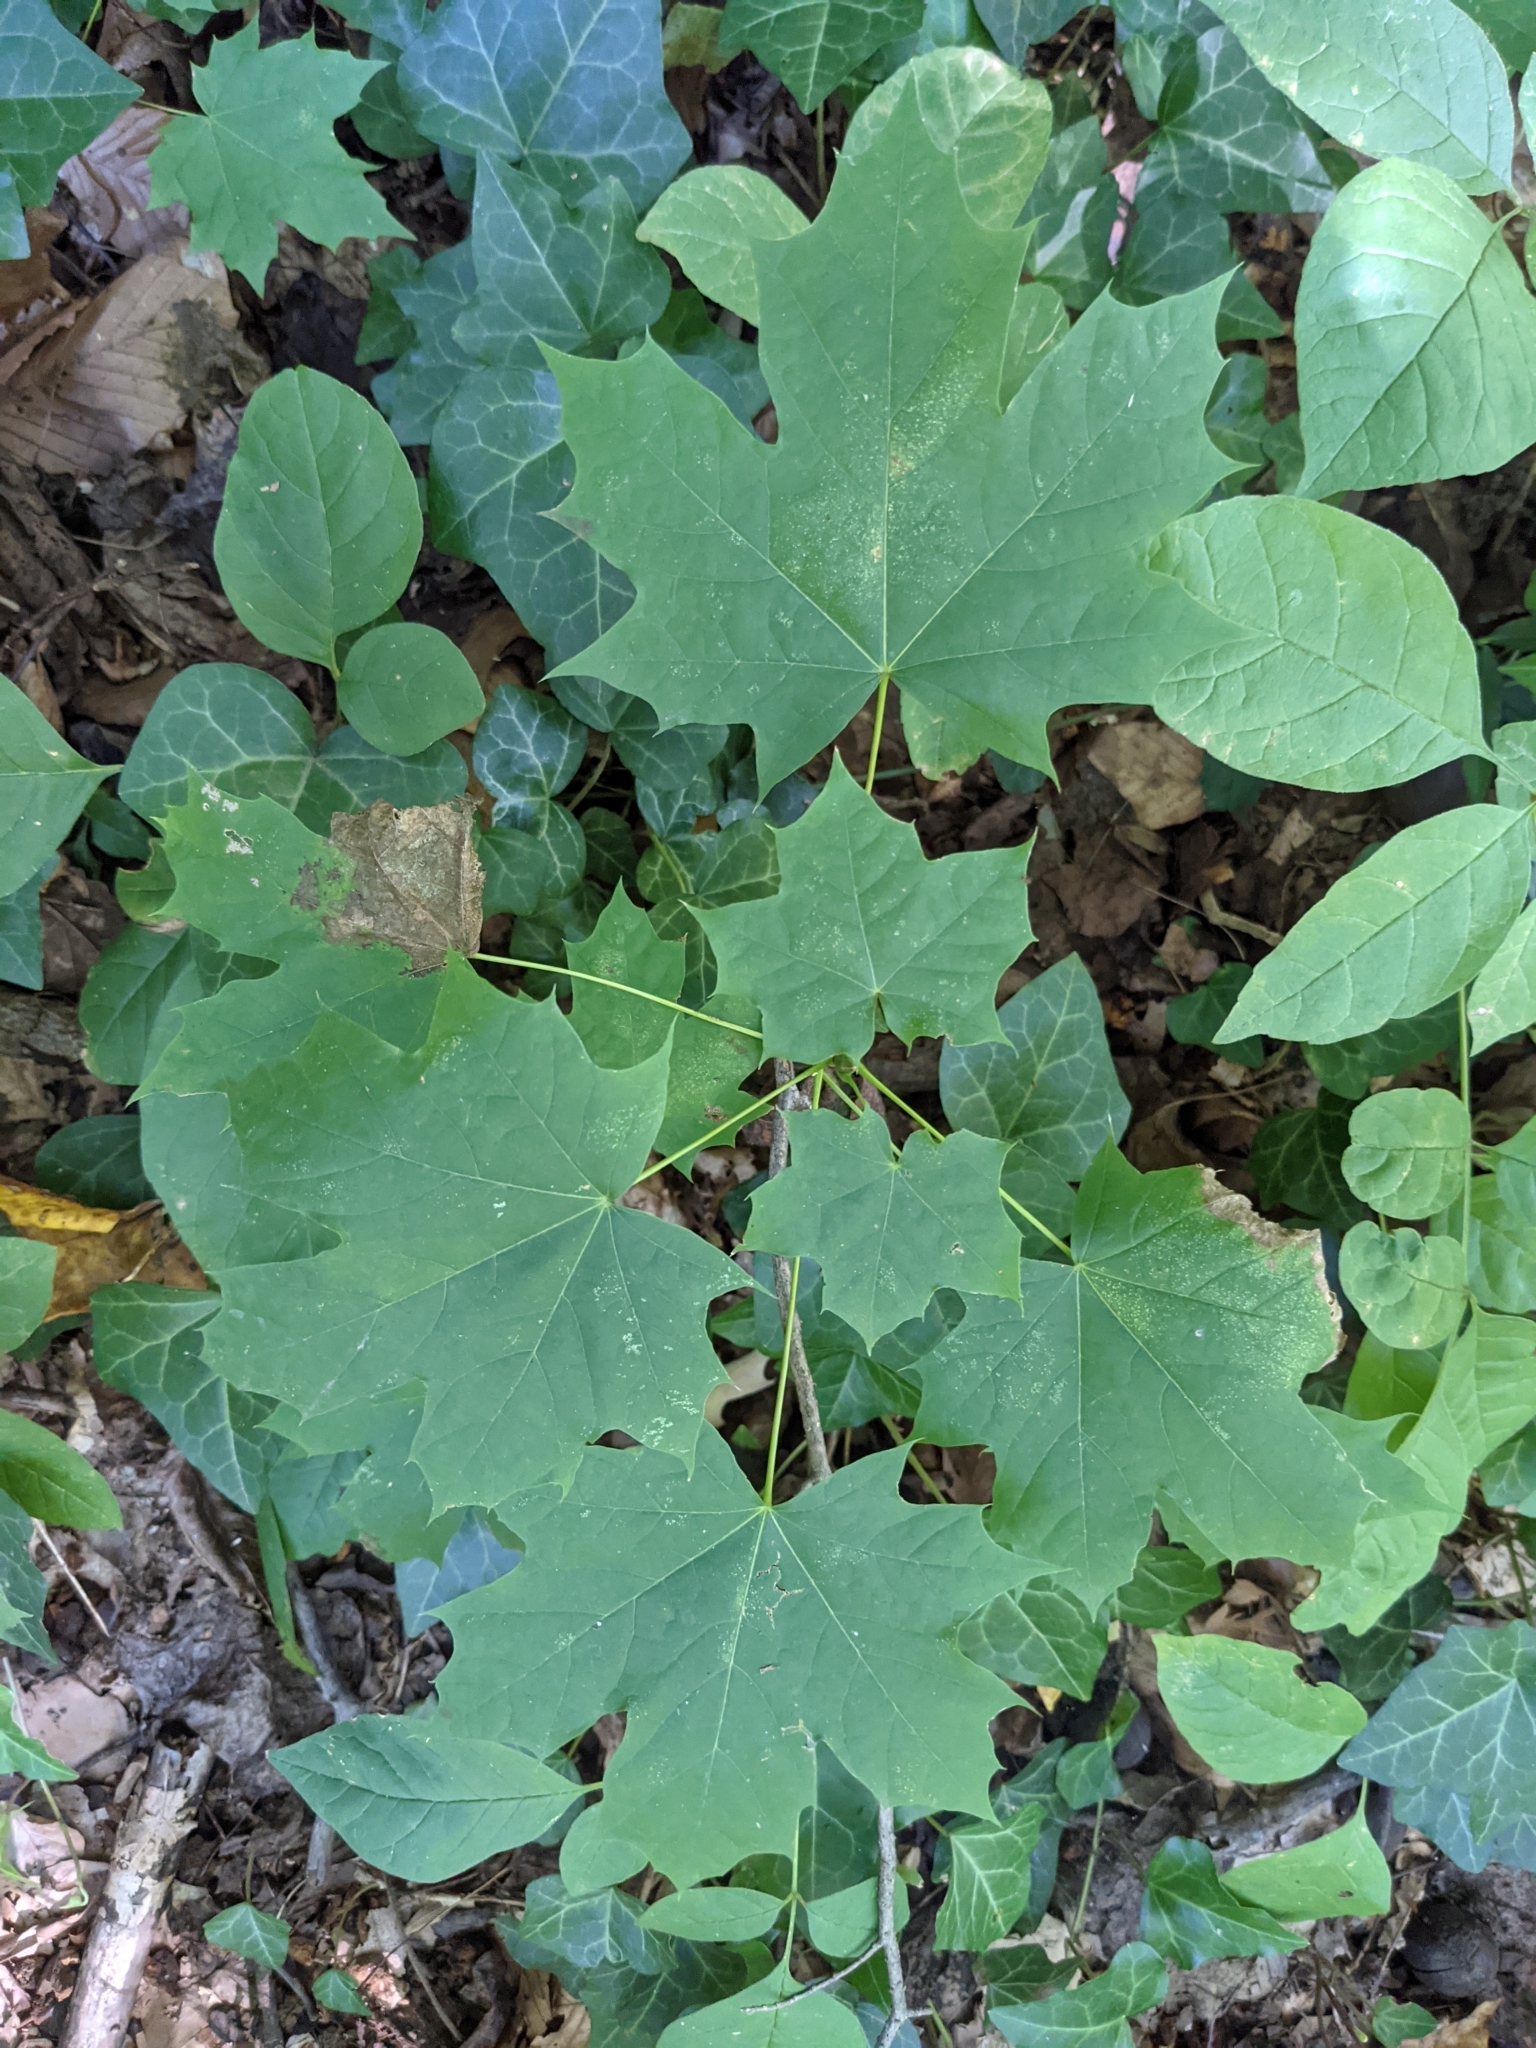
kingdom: Plantae
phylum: Tracheophyta
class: Magnoliopsida
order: Sapindales
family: Sapindaceae
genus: Acer
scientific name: Acer platanoides
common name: Norway maple
